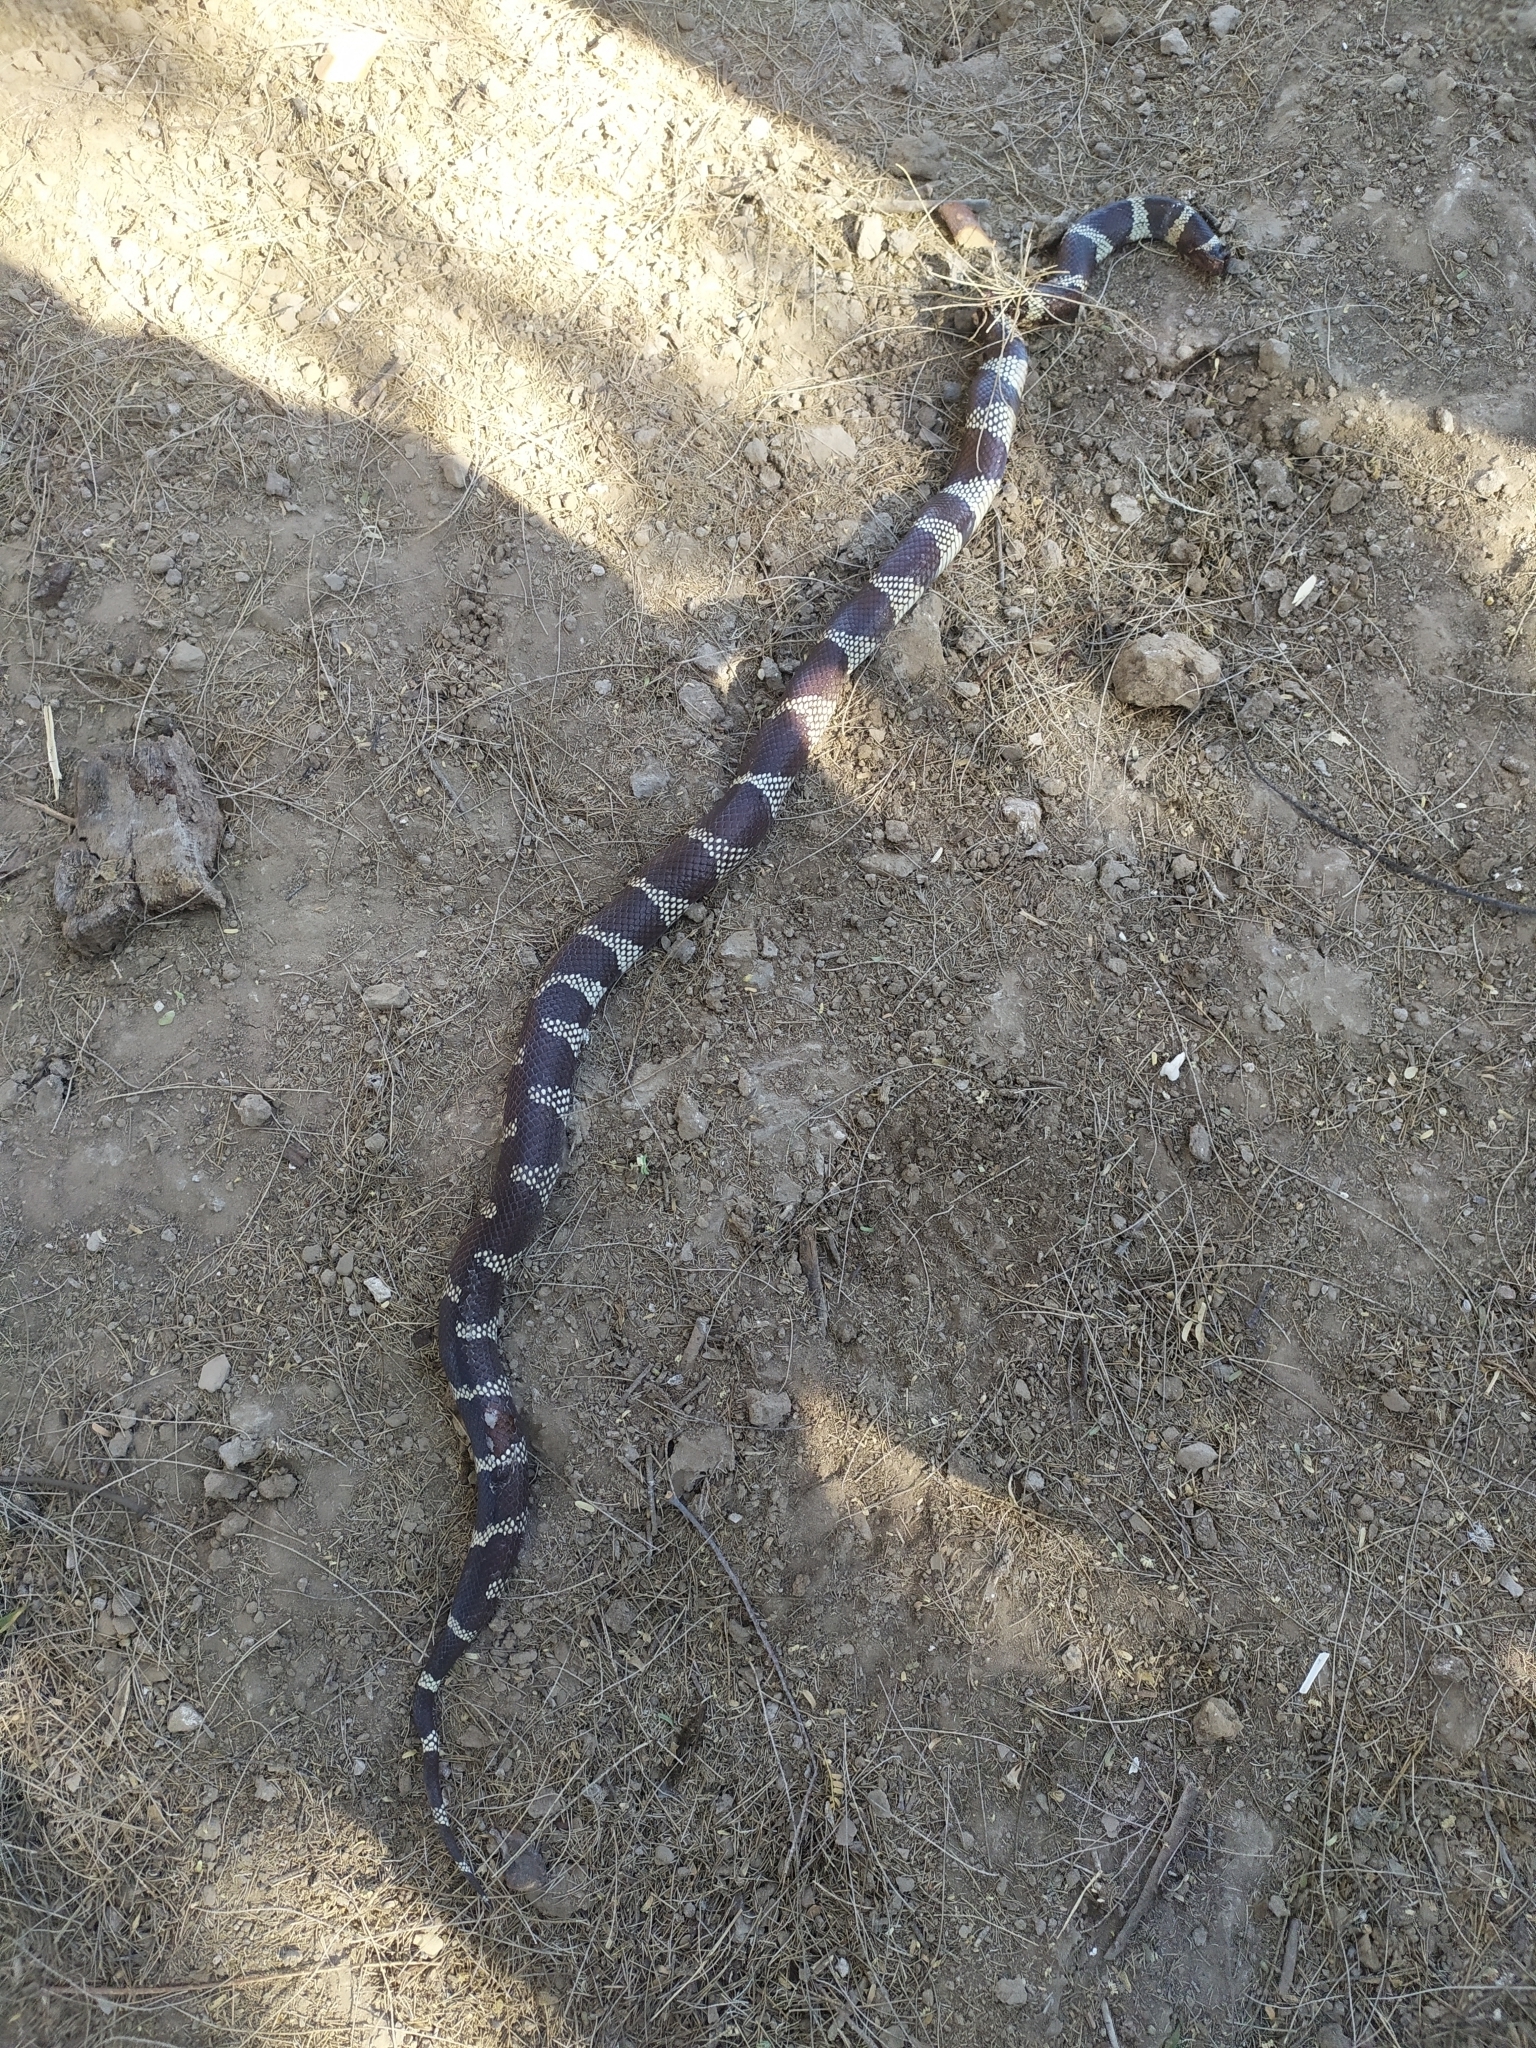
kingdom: Animalia
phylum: Chordata
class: Squamata
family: Colubridae
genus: Lampropeltis
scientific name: Lampropeltis californiae
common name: California kingsnake
